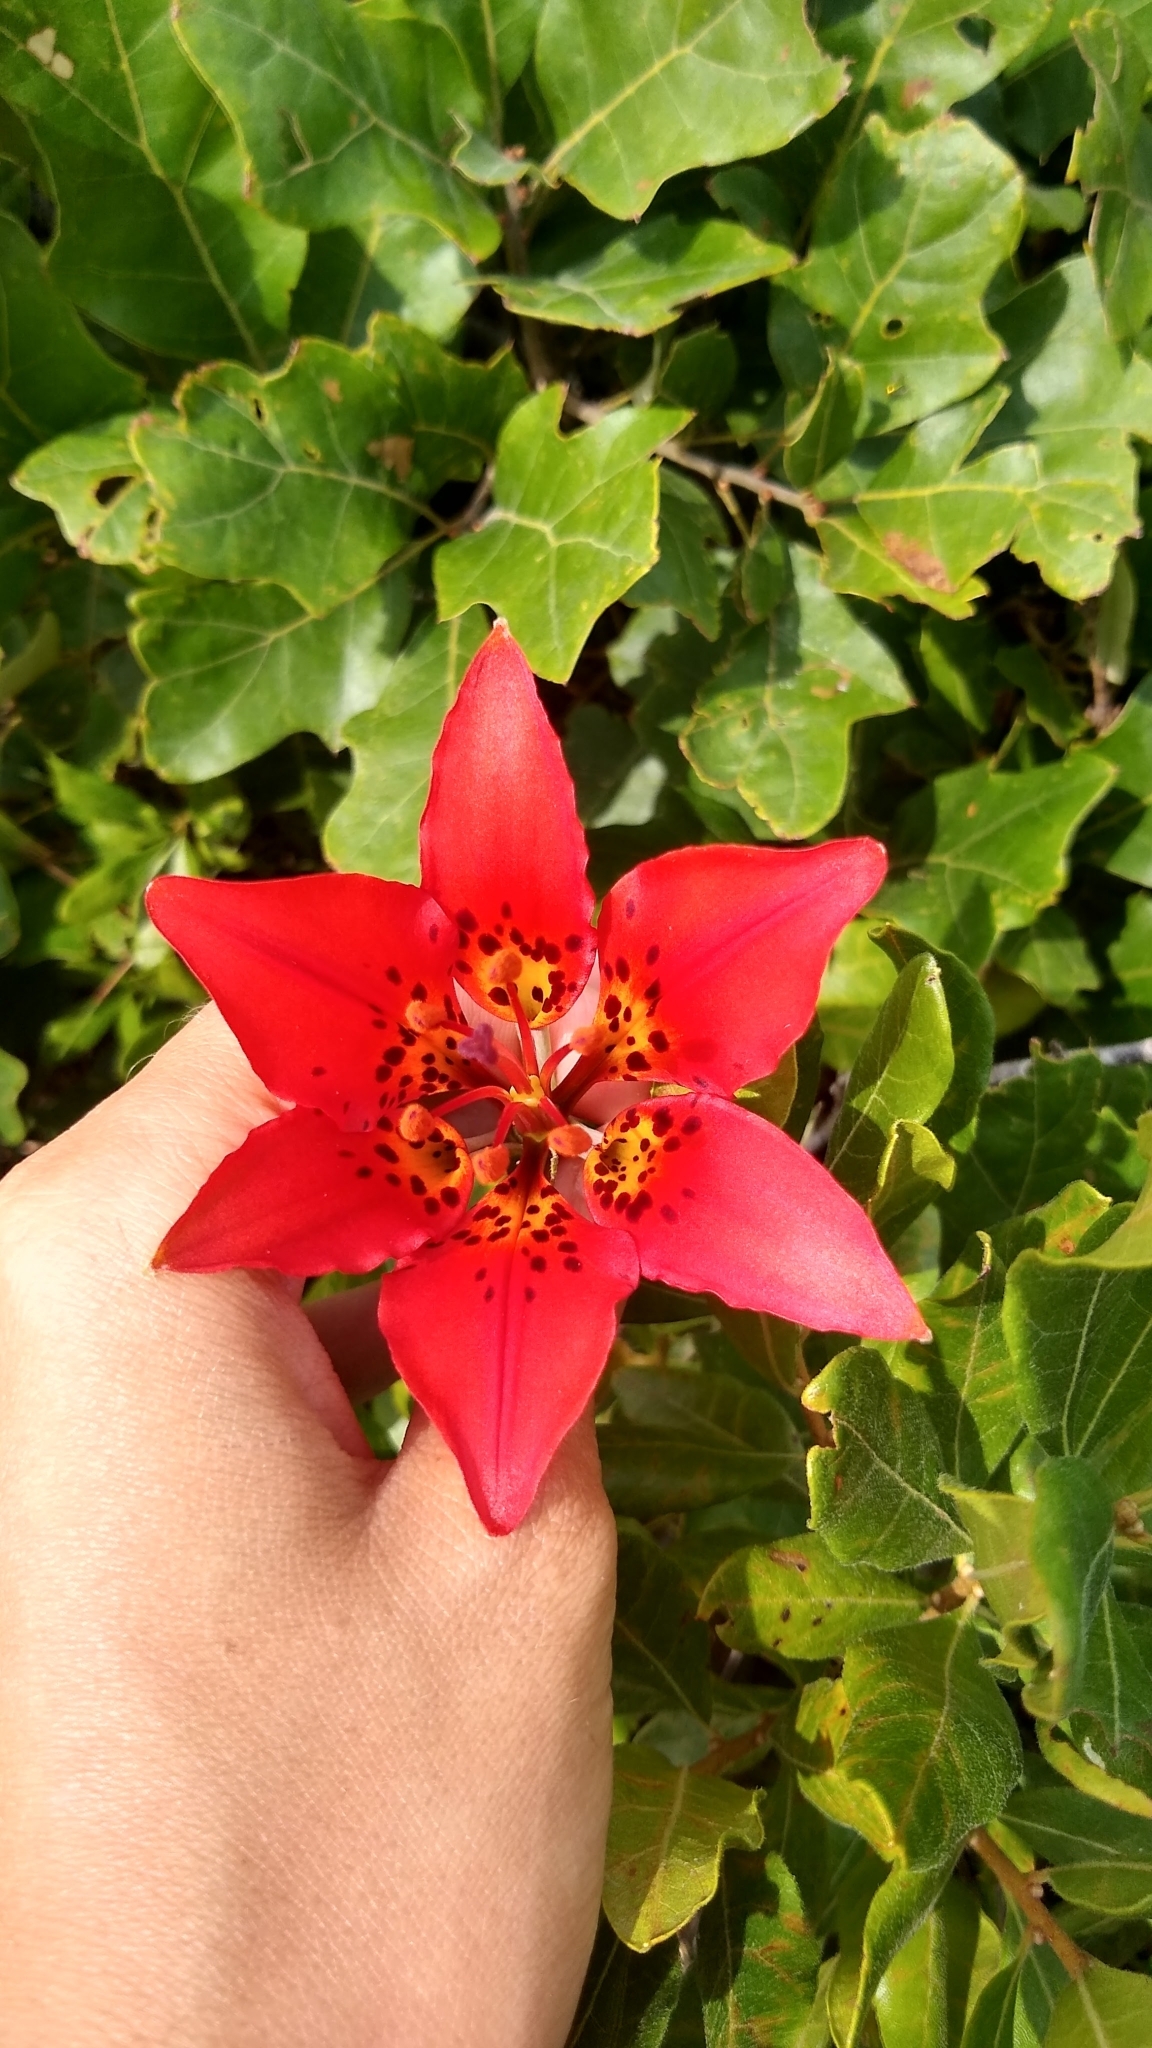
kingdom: Plantae
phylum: Tracheophyta
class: Liliopsida
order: Liliales
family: Liliaceae
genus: Lilium
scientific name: Lilium philadelphicum
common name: Red lily
